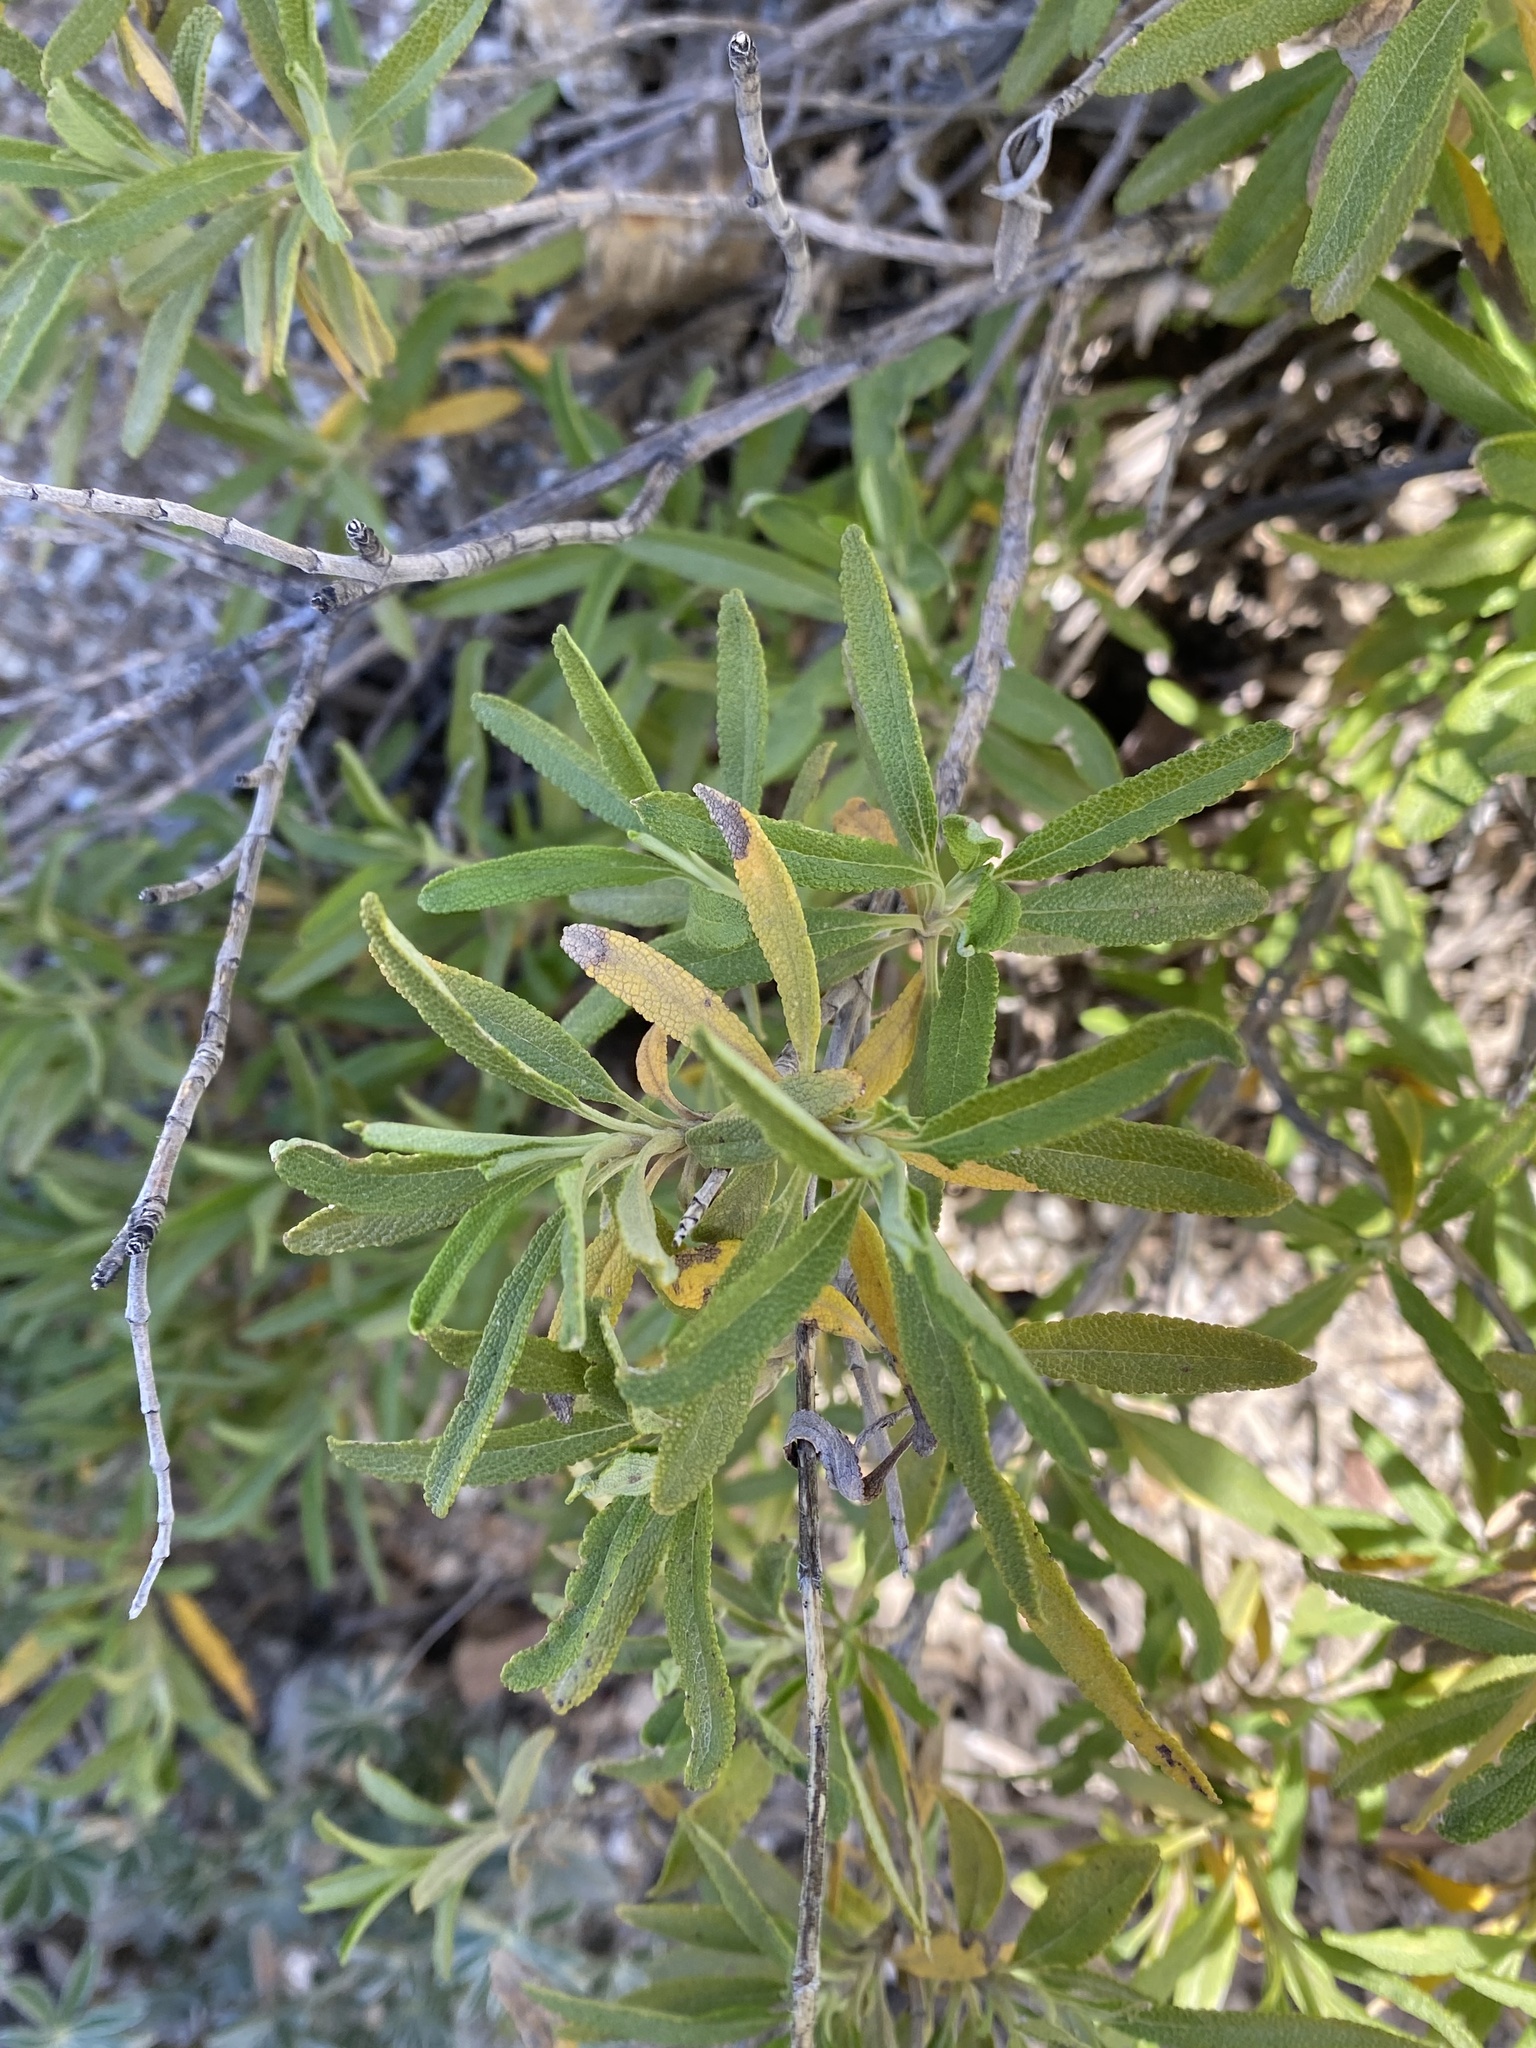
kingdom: Plantae
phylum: Tracheophyta
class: Magnoliopsida
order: Lamiales
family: Lamiaceae
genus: Salvia
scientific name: Salvia mellifera
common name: Black sage
